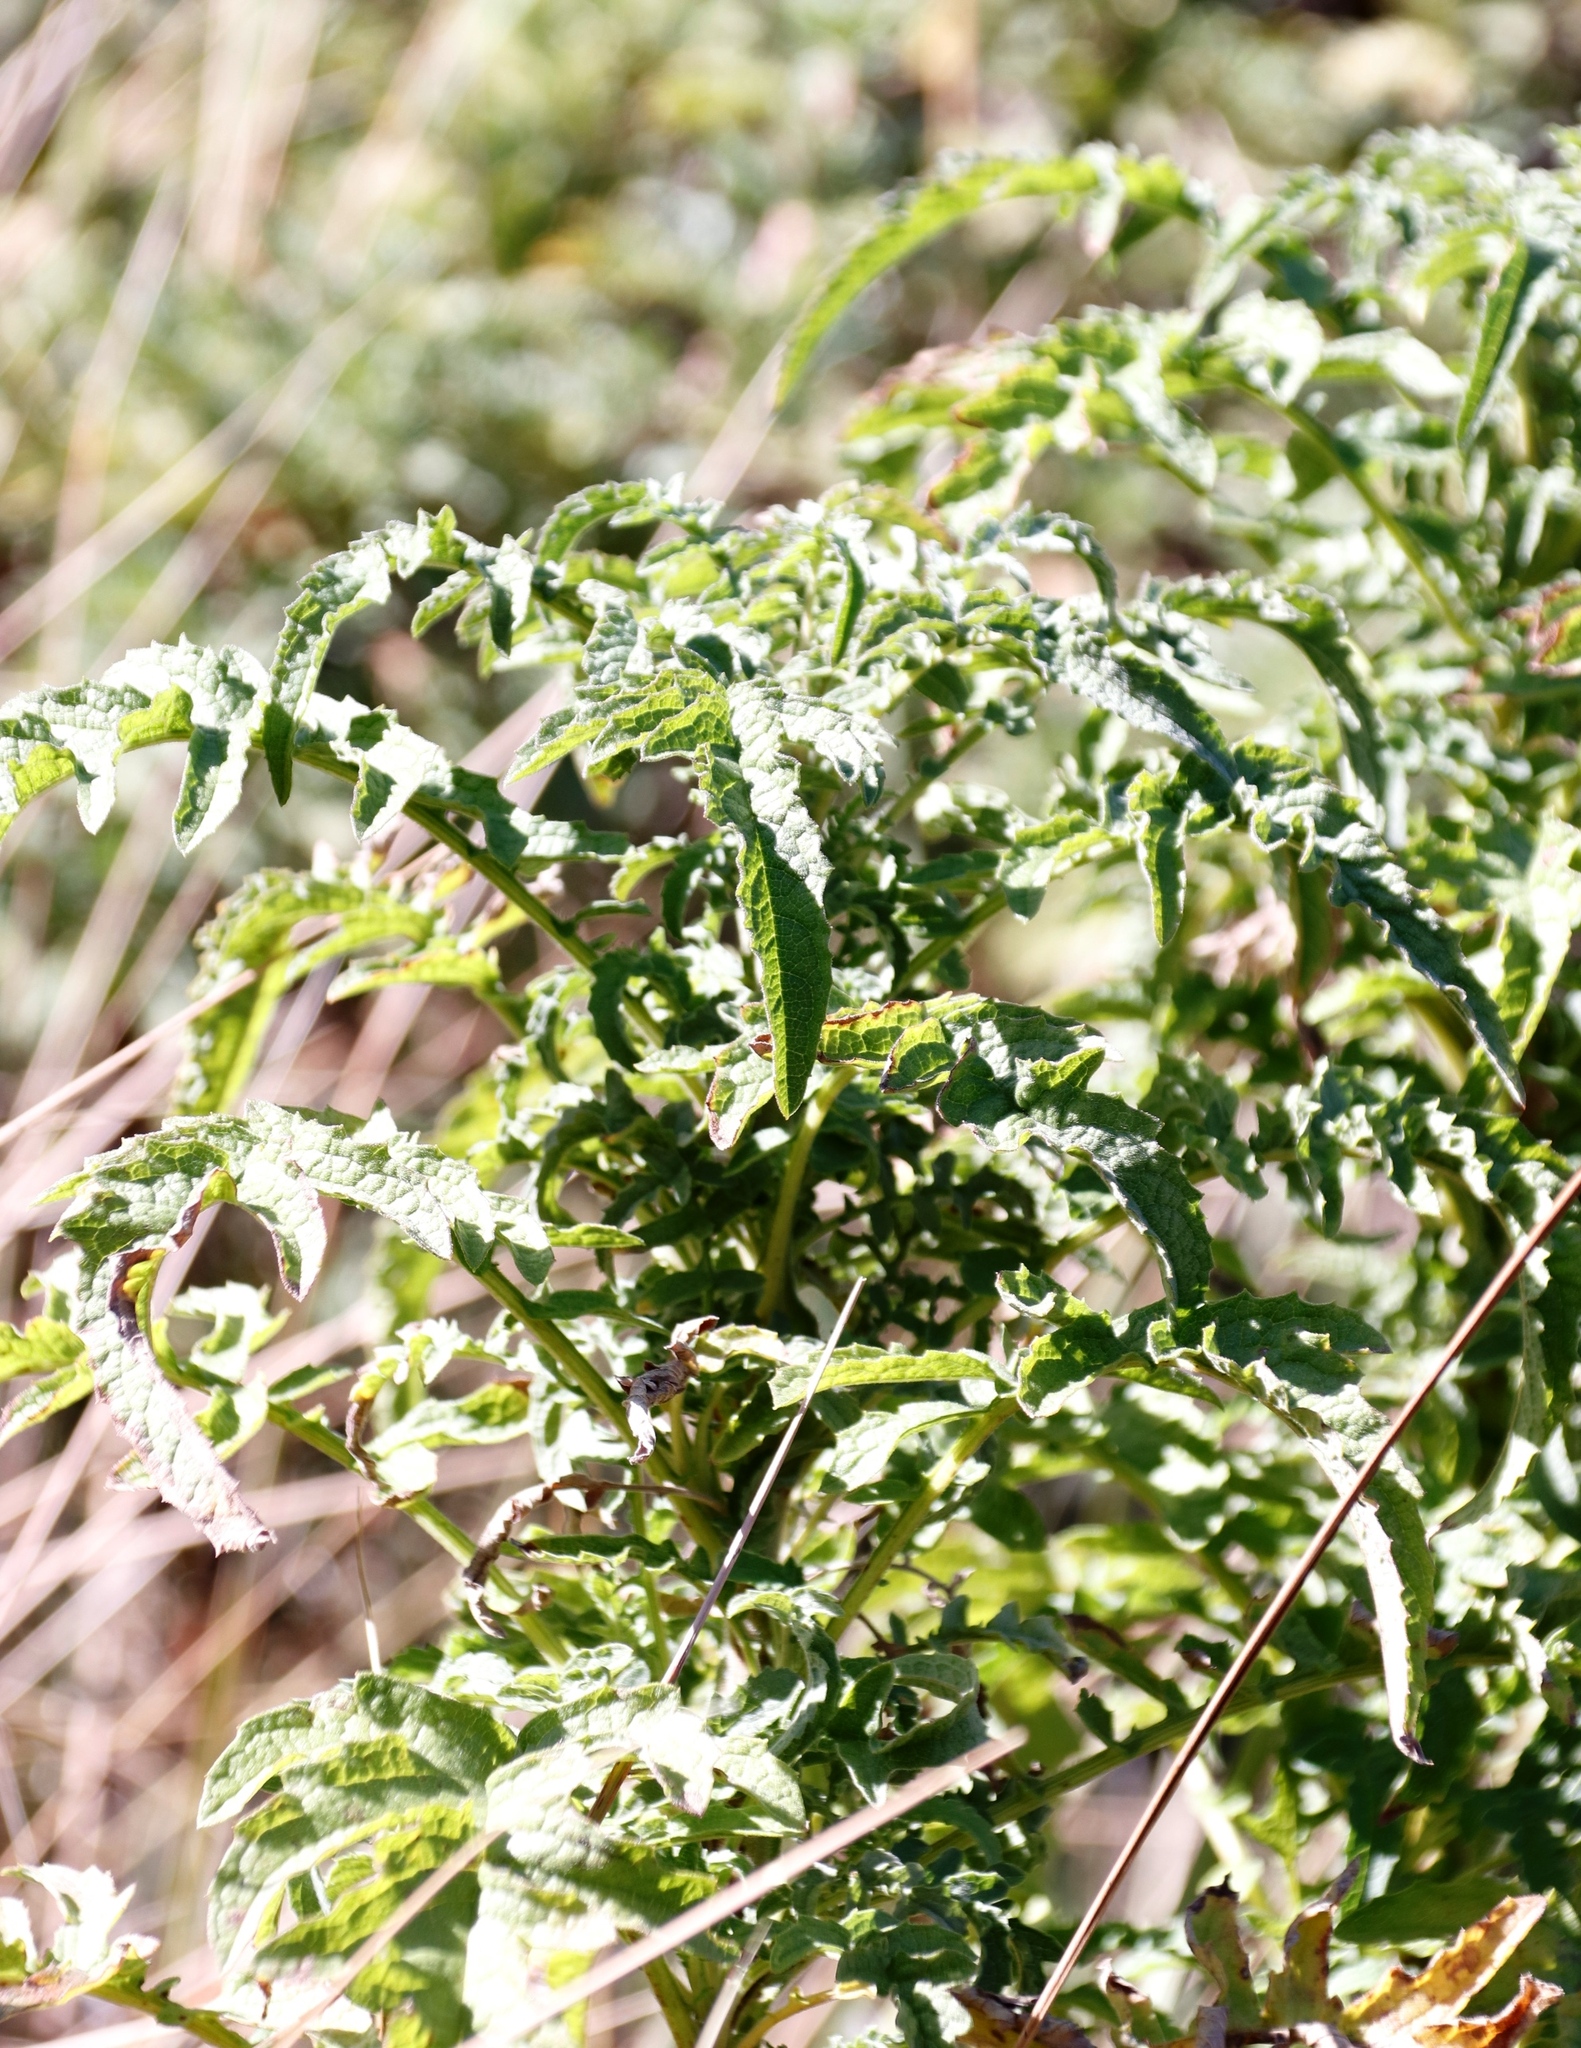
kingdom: Plantae
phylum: Tracheophyta
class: Magnoliopsida
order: Asterales
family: Asteraceae
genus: Heteromma
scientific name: Heteromma decurrens
